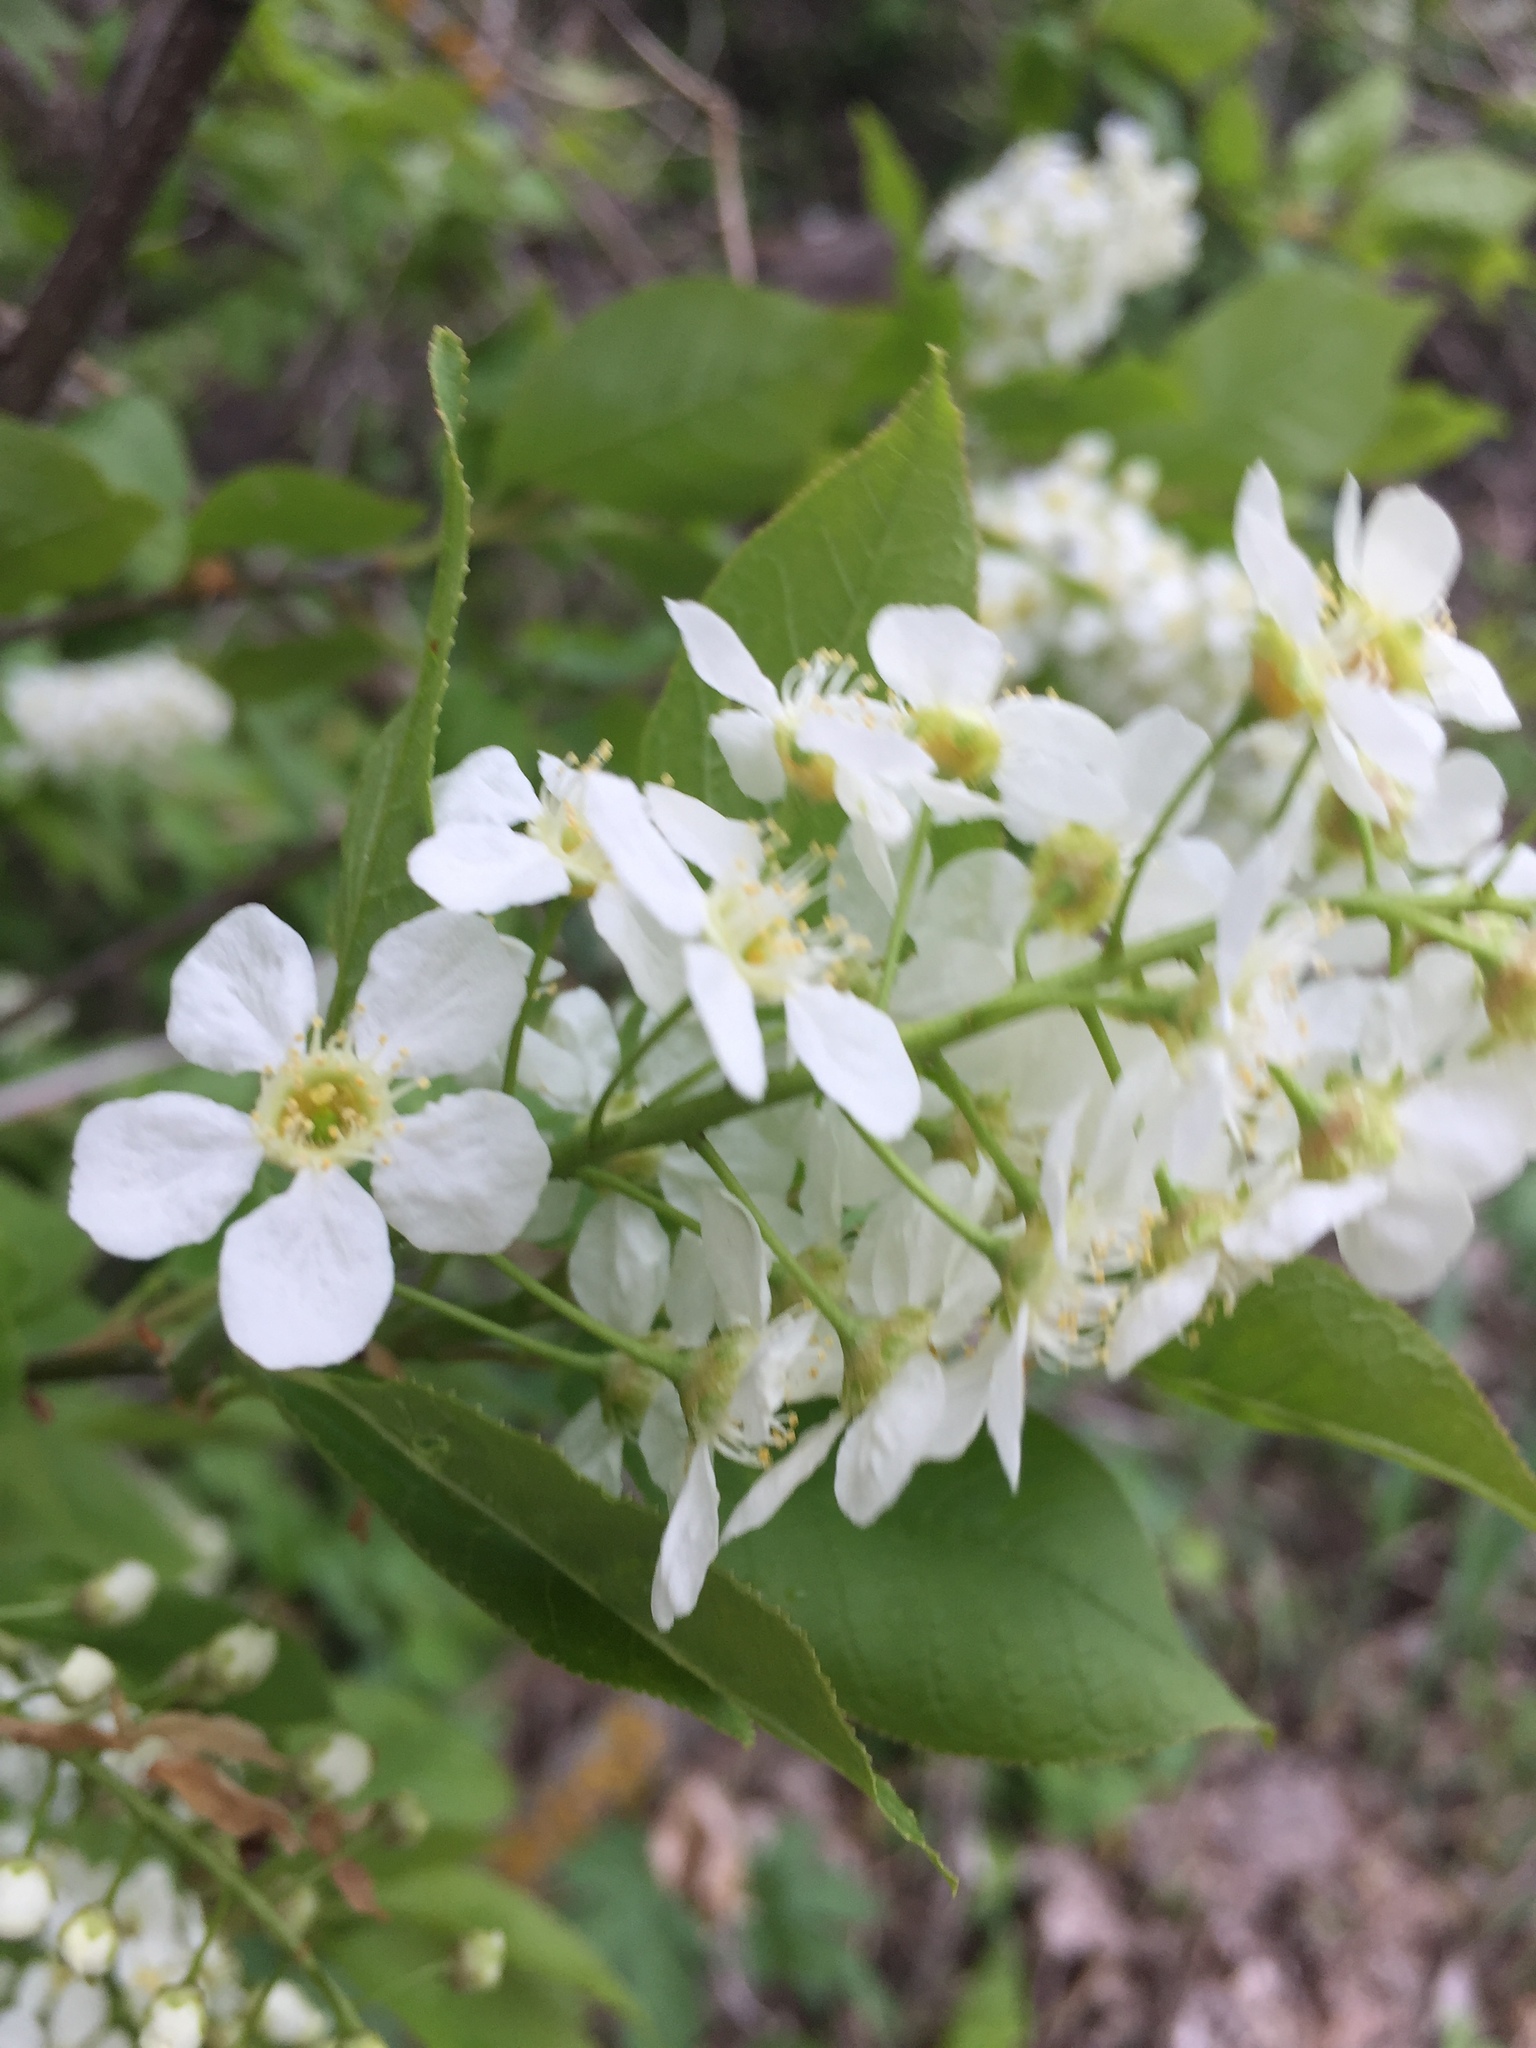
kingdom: Plantae
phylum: Tracheophyta
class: Magnoliopsida
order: Rosales
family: Rosaceae
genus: Prunus
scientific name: Prunus padus
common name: Bird cherry
